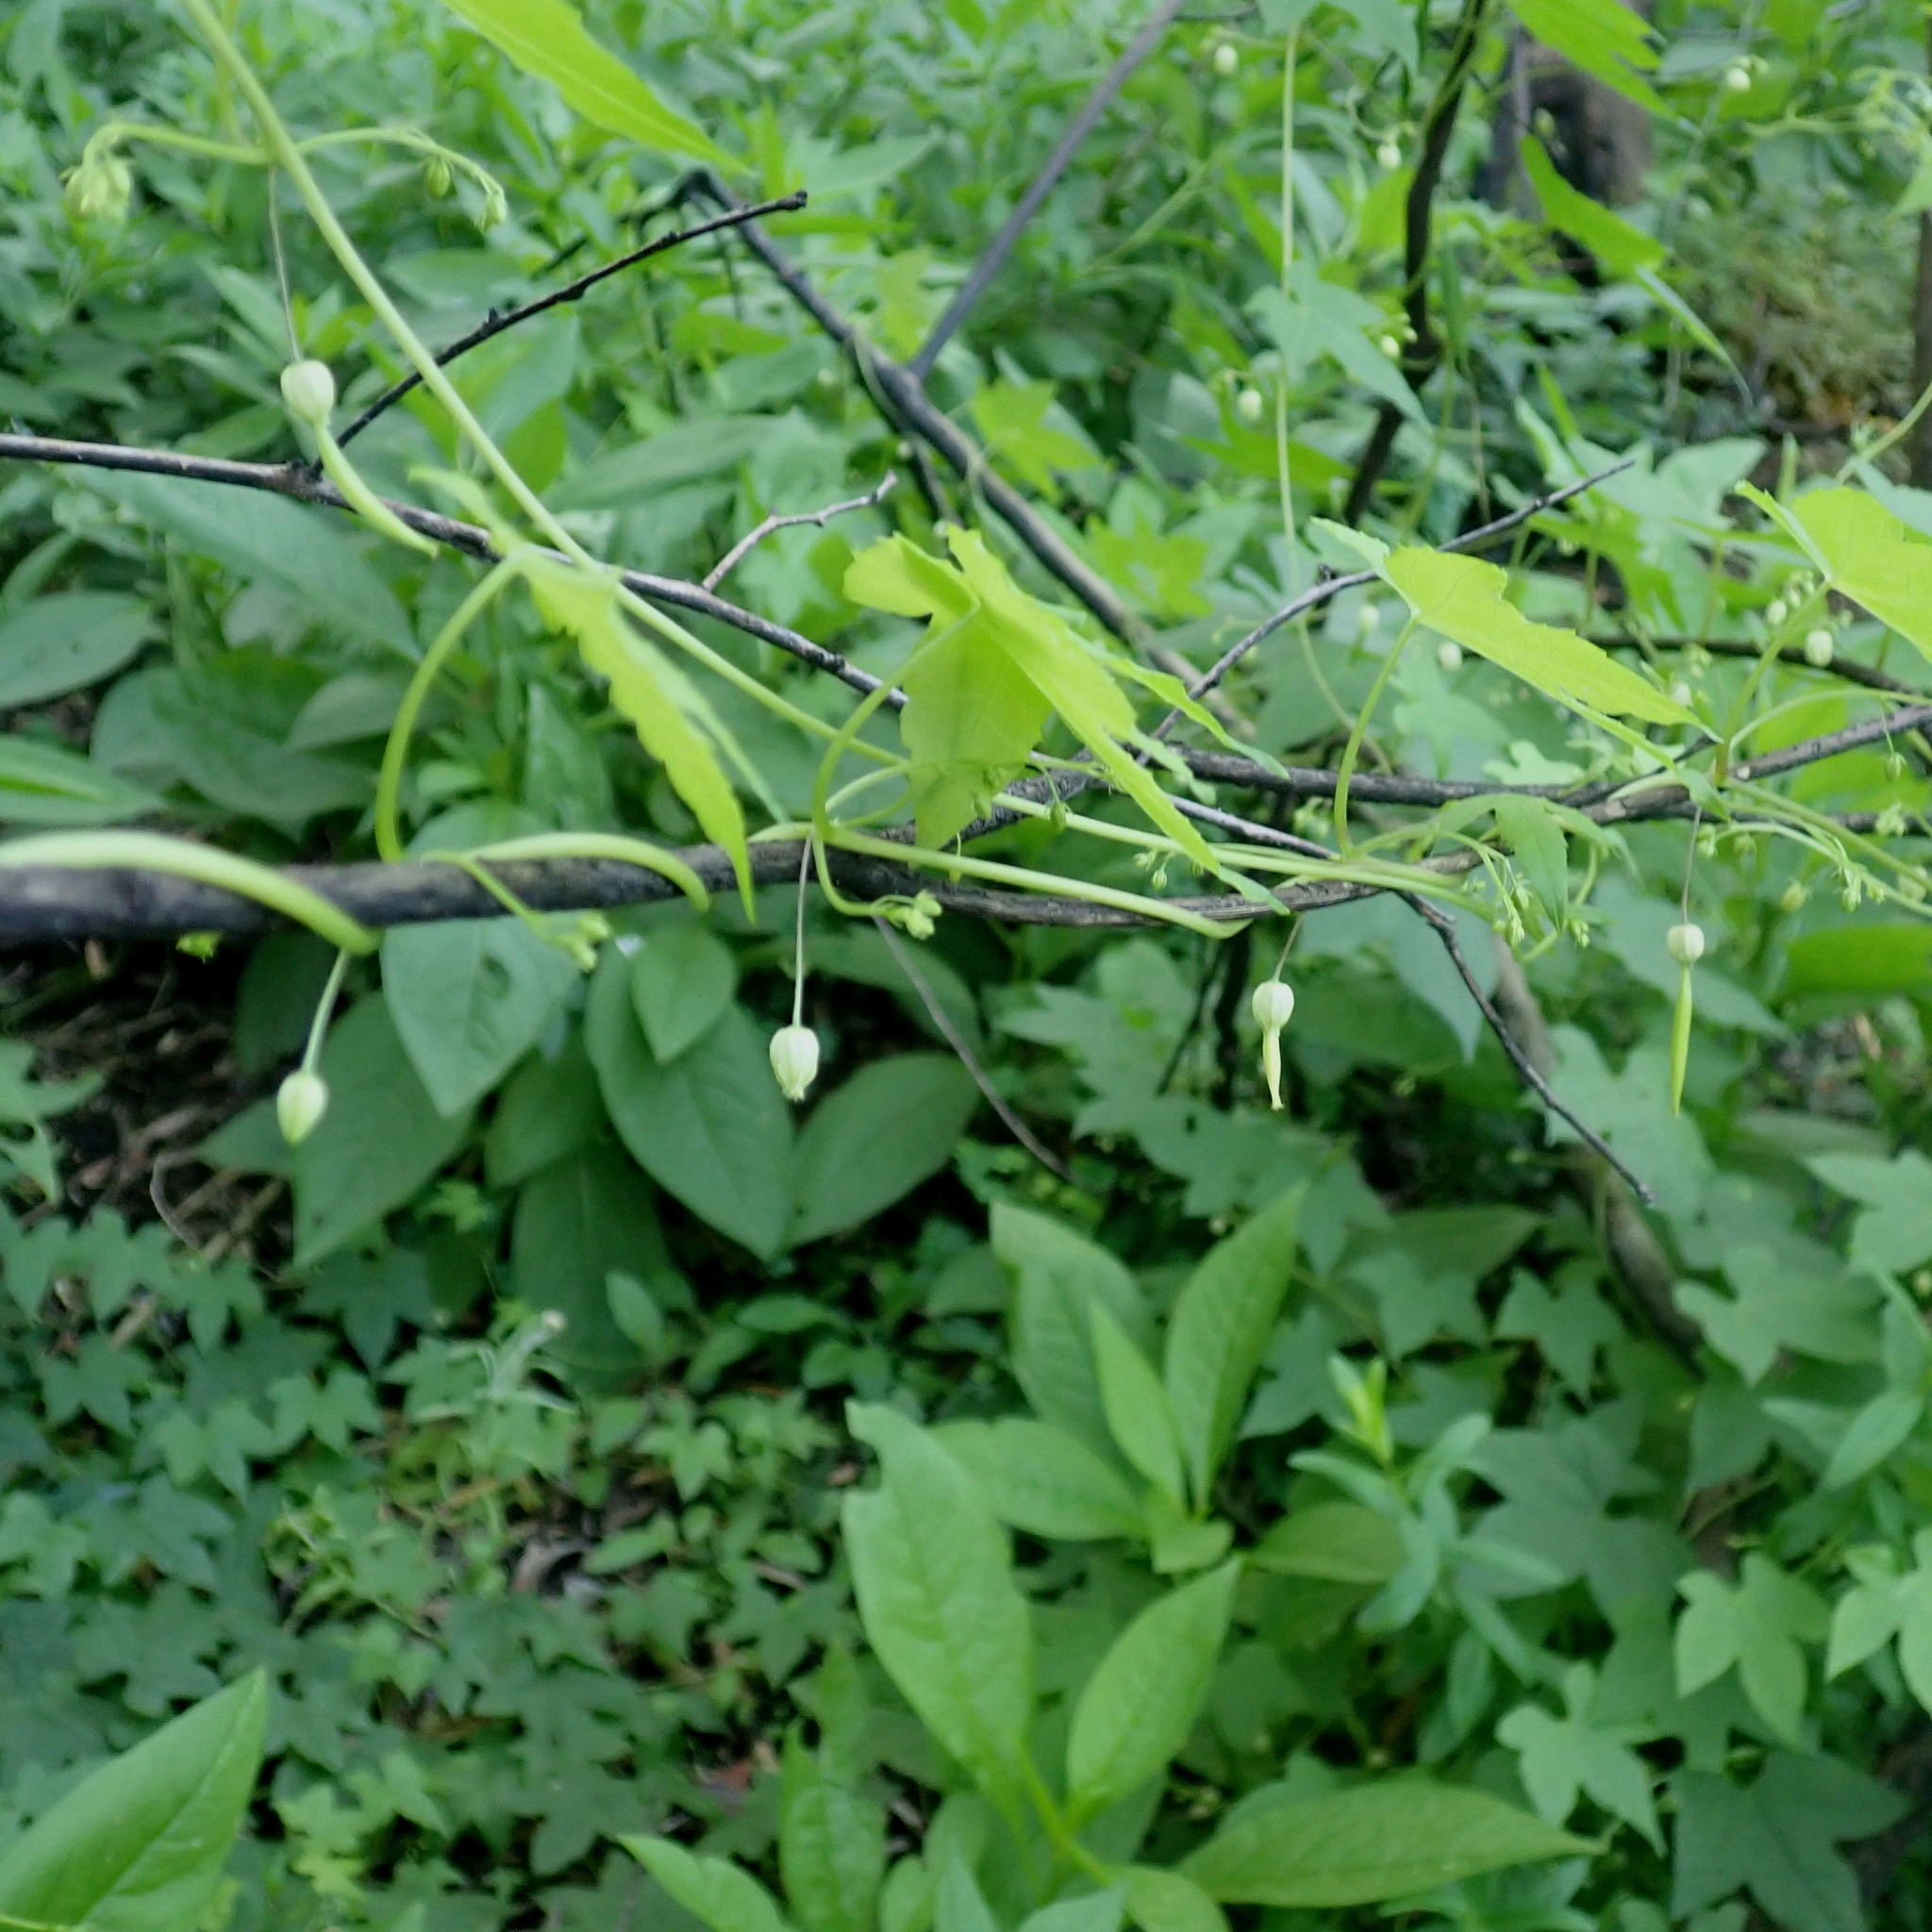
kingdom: Plantae
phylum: Tracheophyta
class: Magnoliopsida
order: Malpighiales
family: Achariaceae
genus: Ceratiosicyos
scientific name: Ceratiosicyos laevis
